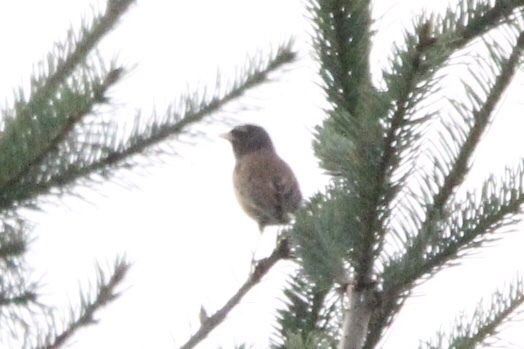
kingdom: Animalia
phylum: Chordata
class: Aves
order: Passeriformes
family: Passerellidae
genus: Junco
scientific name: Junco hyemalis
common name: Dark-eyed junco
